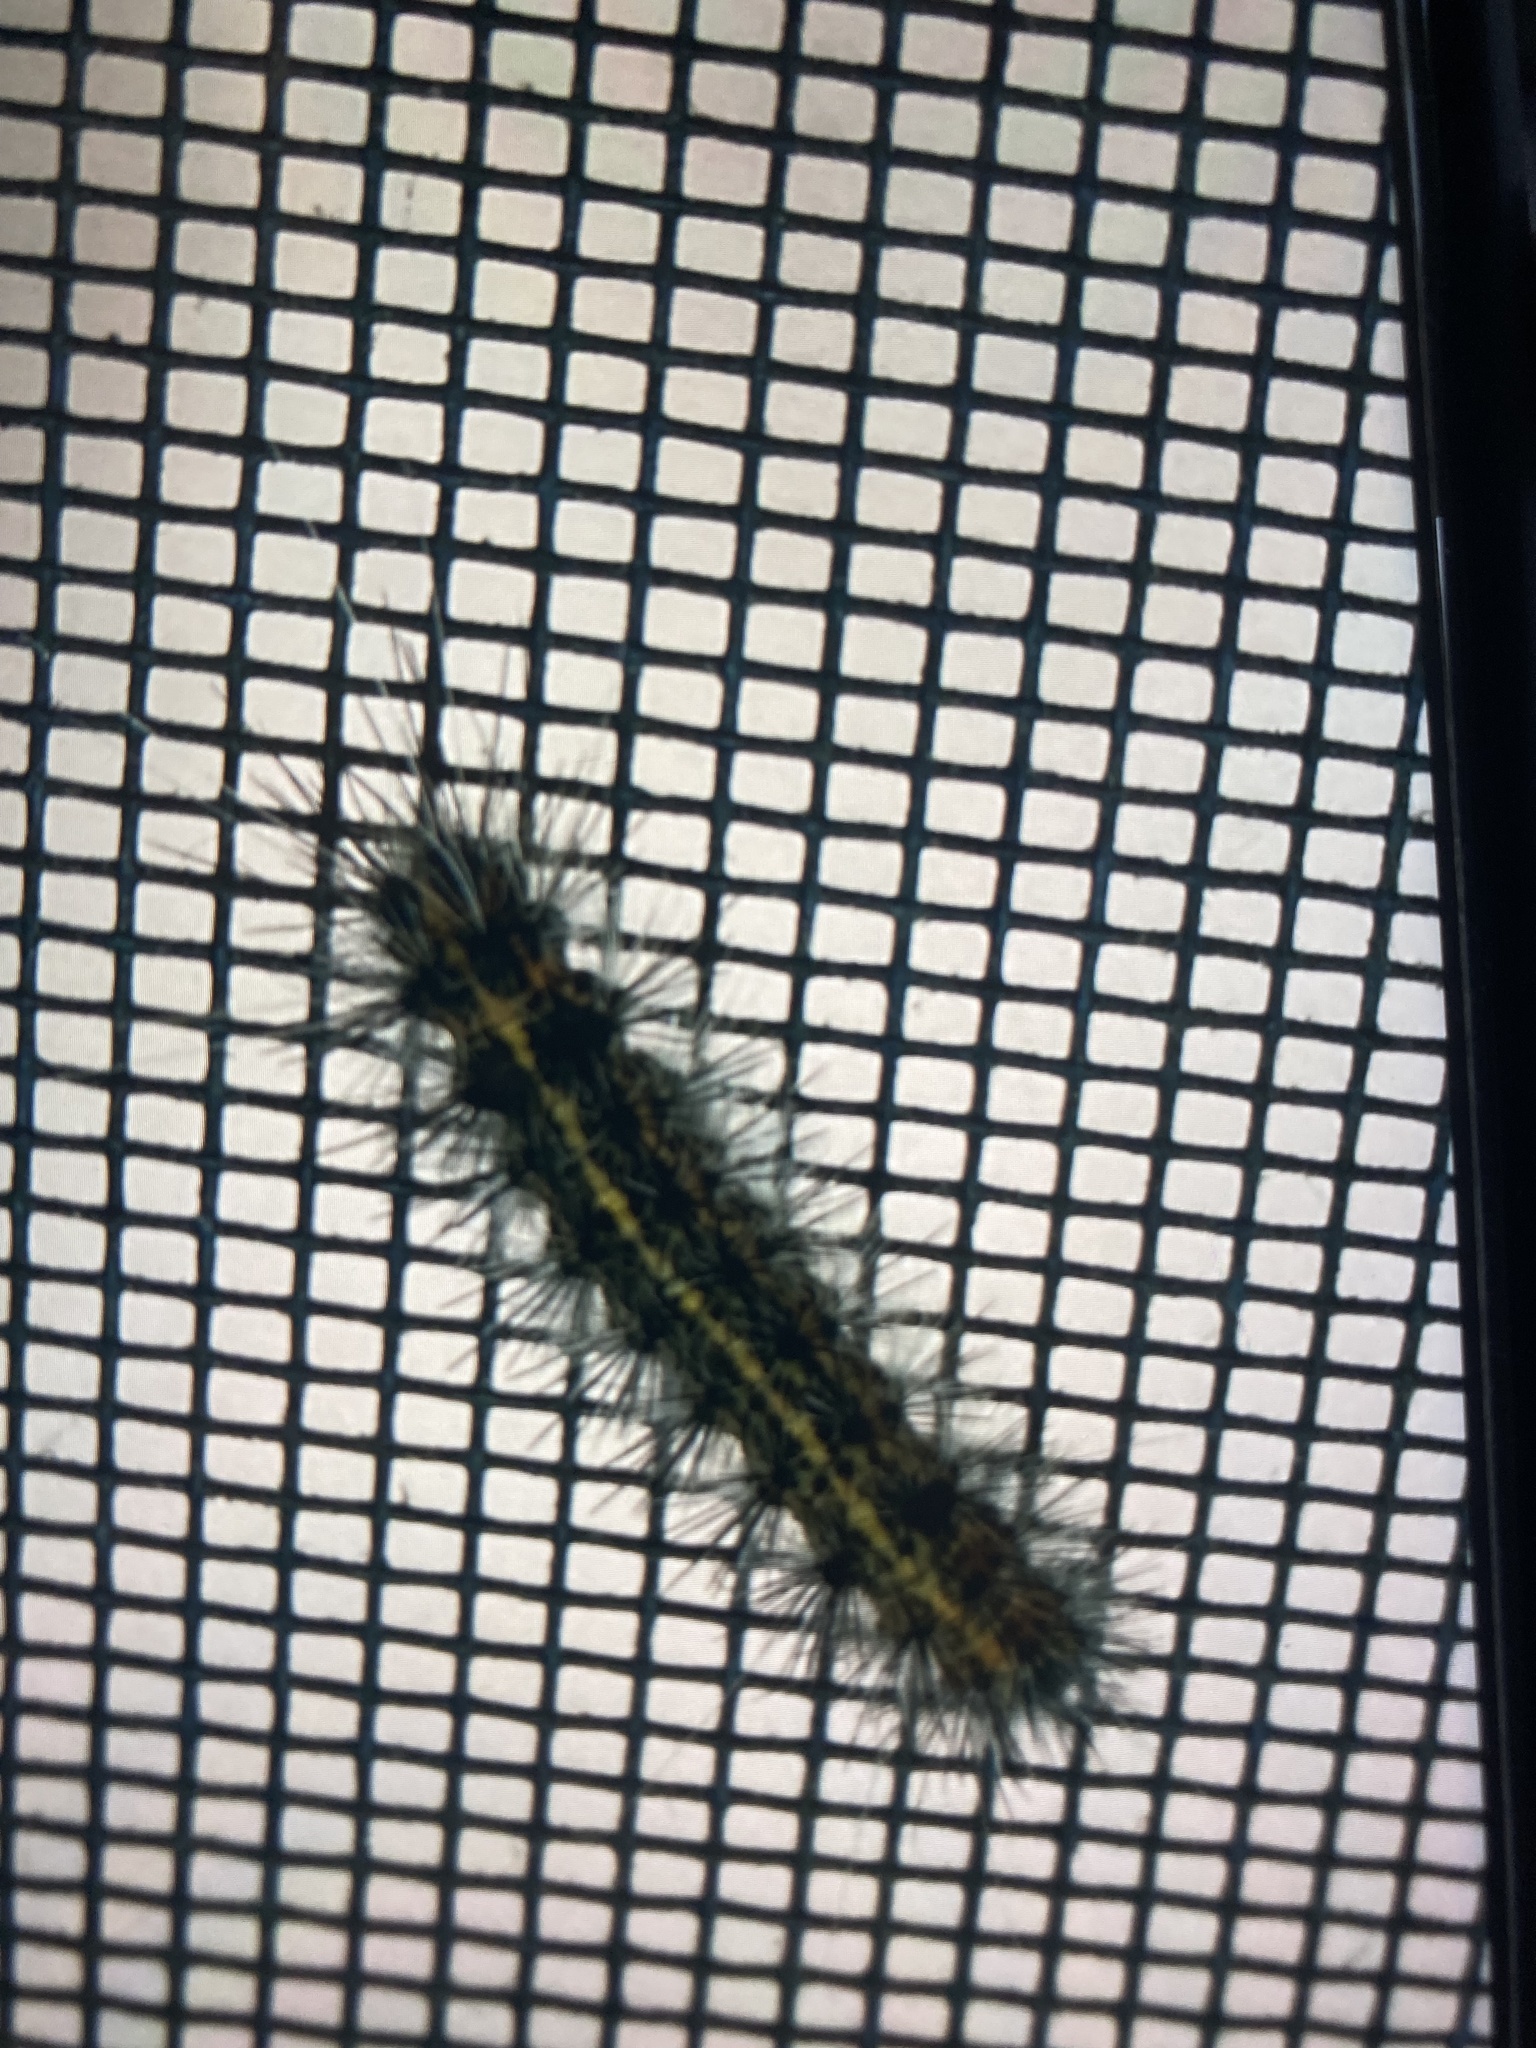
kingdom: Animalia
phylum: Arthropoda
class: Insecta
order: Lepidoptera
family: Erebidae
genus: Spilosoma
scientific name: Spilosoma dubia
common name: Dubious tiger moth
